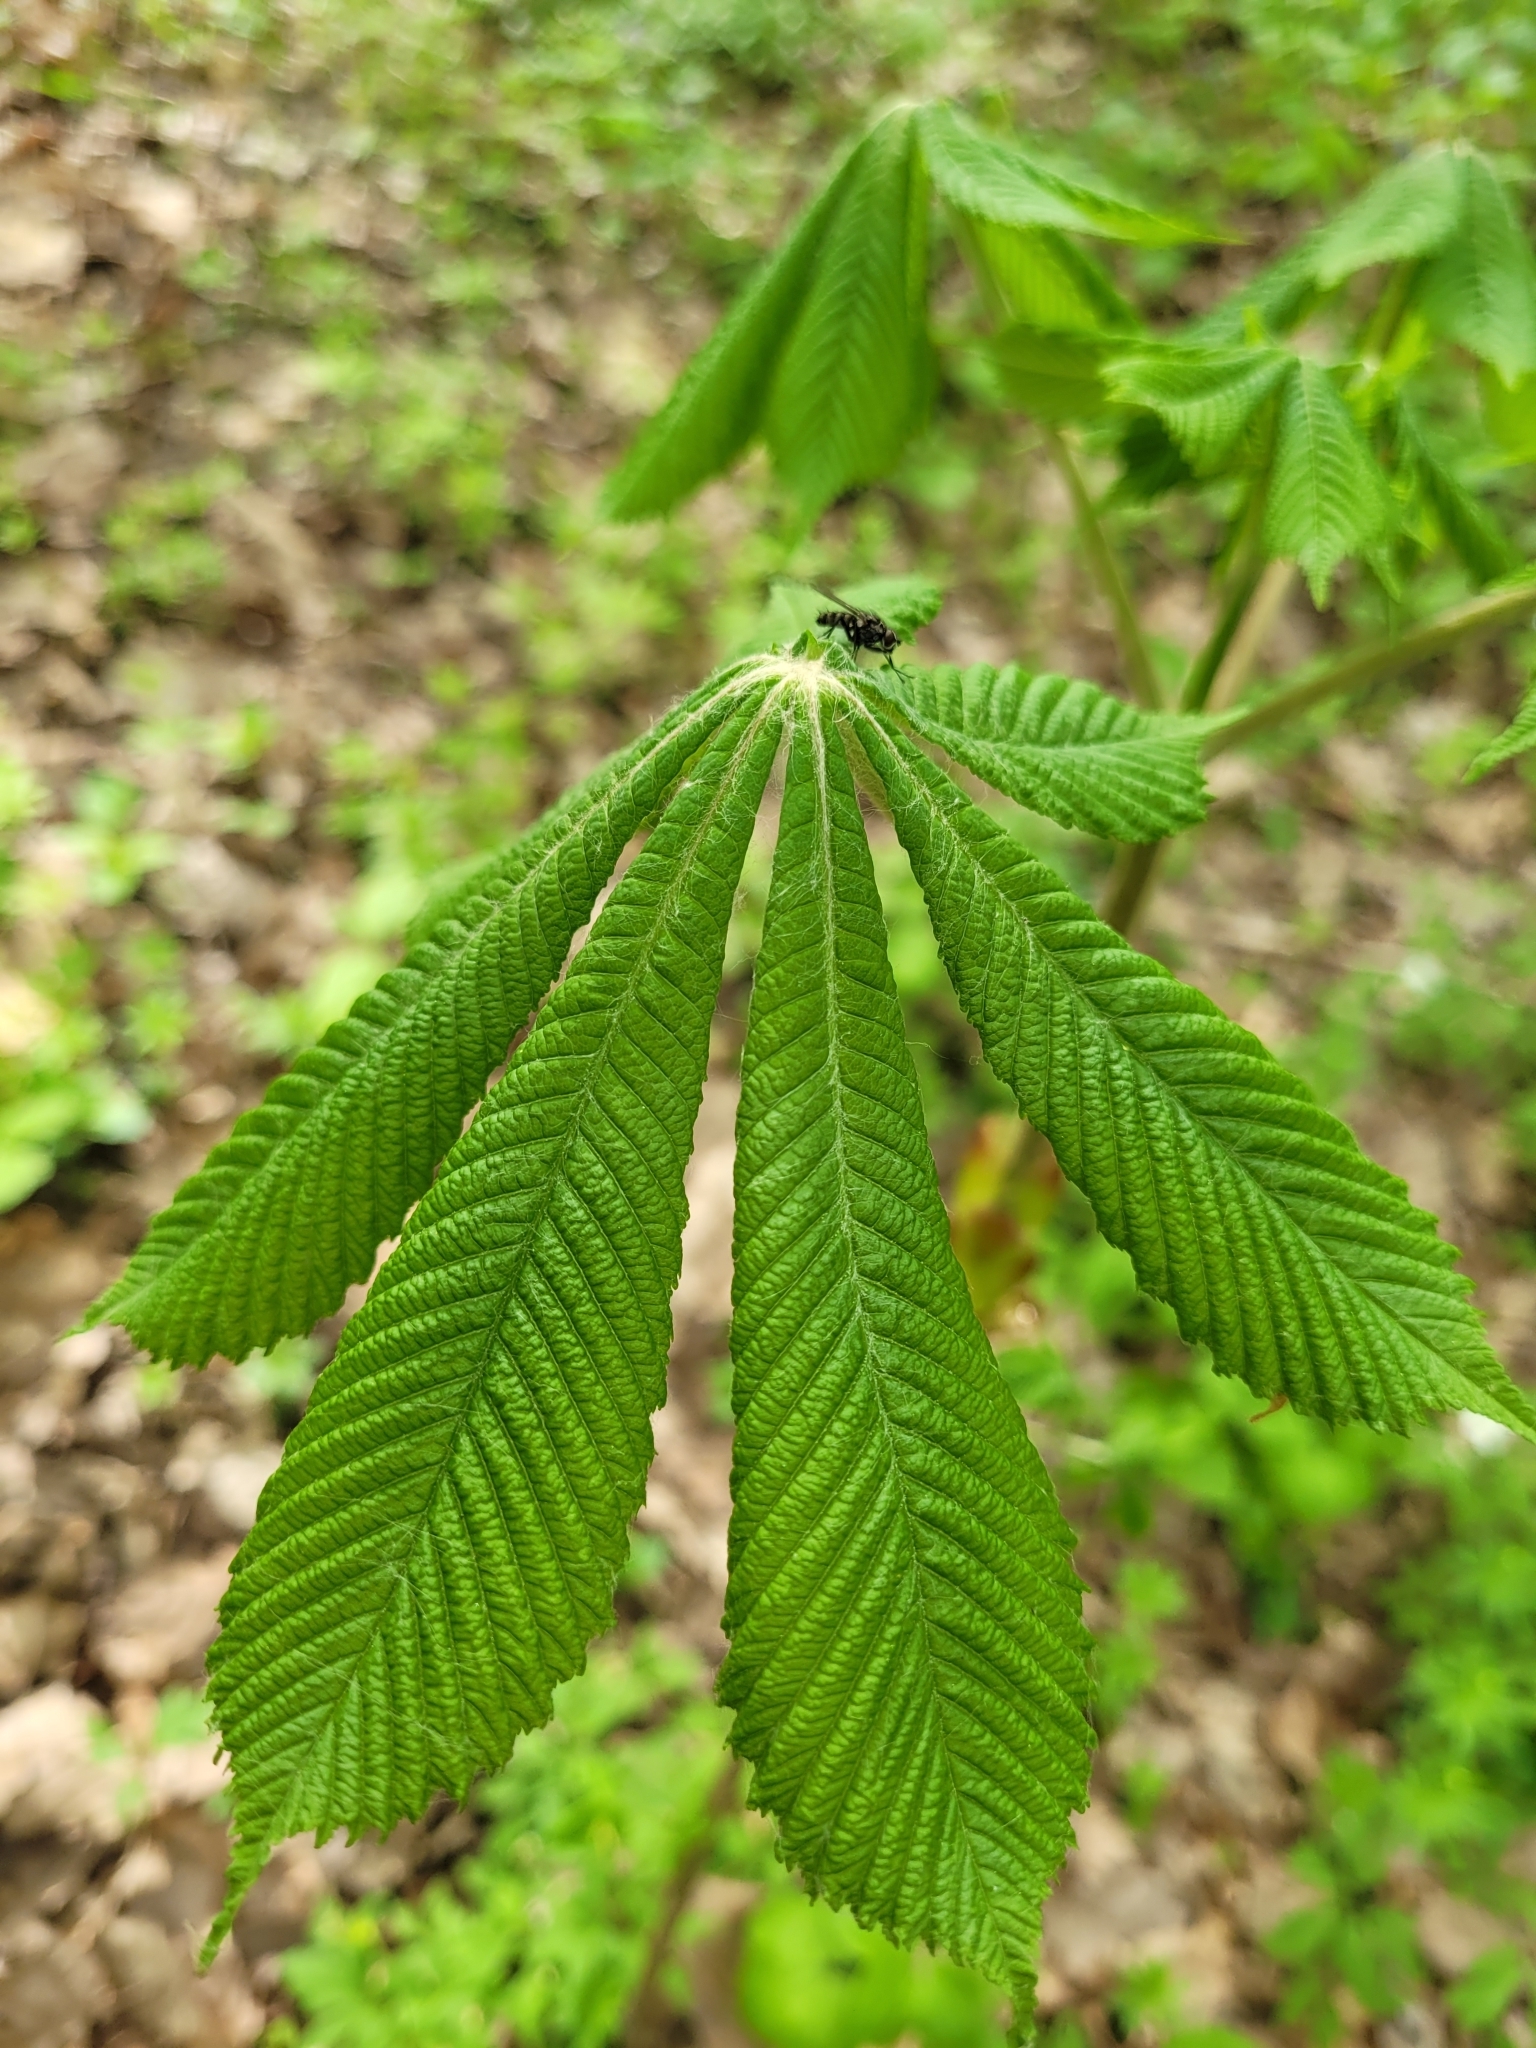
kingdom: Plantae
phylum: Tracheophyta
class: Magnoliopsida
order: Sapindales
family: Sapindaceae
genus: Aesculus
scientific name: Aesculus hippocastanum
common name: Horse-chestnut
